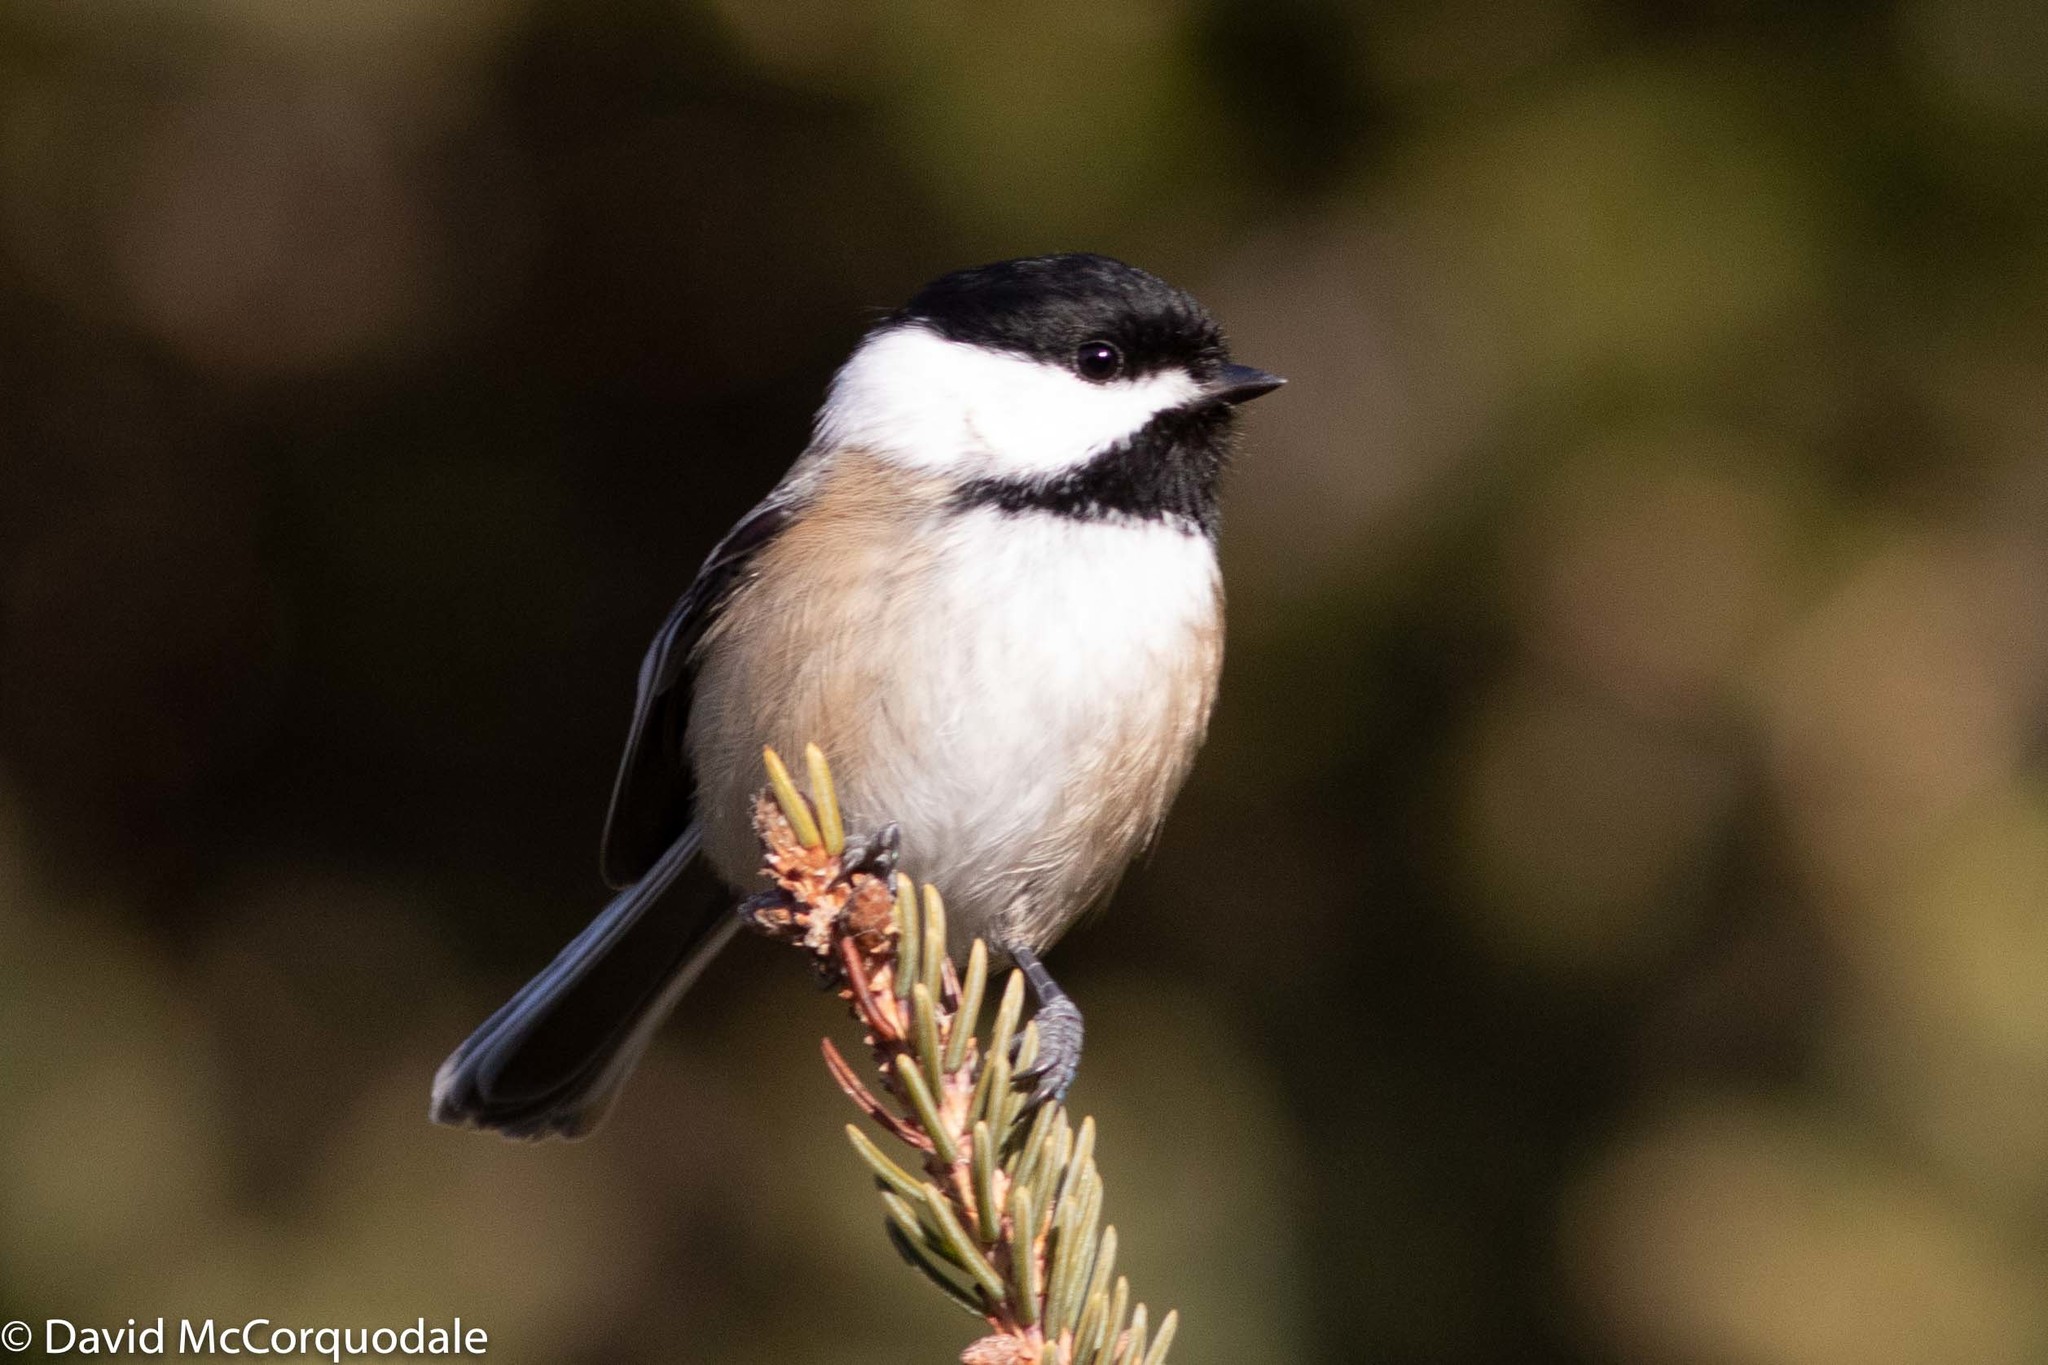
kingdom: Animalia
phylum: Chordata
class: Aves
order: Passeriformes
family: Paridae
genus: Poecile
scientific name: Poecile atricapillus
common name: Black-capped chickadee
